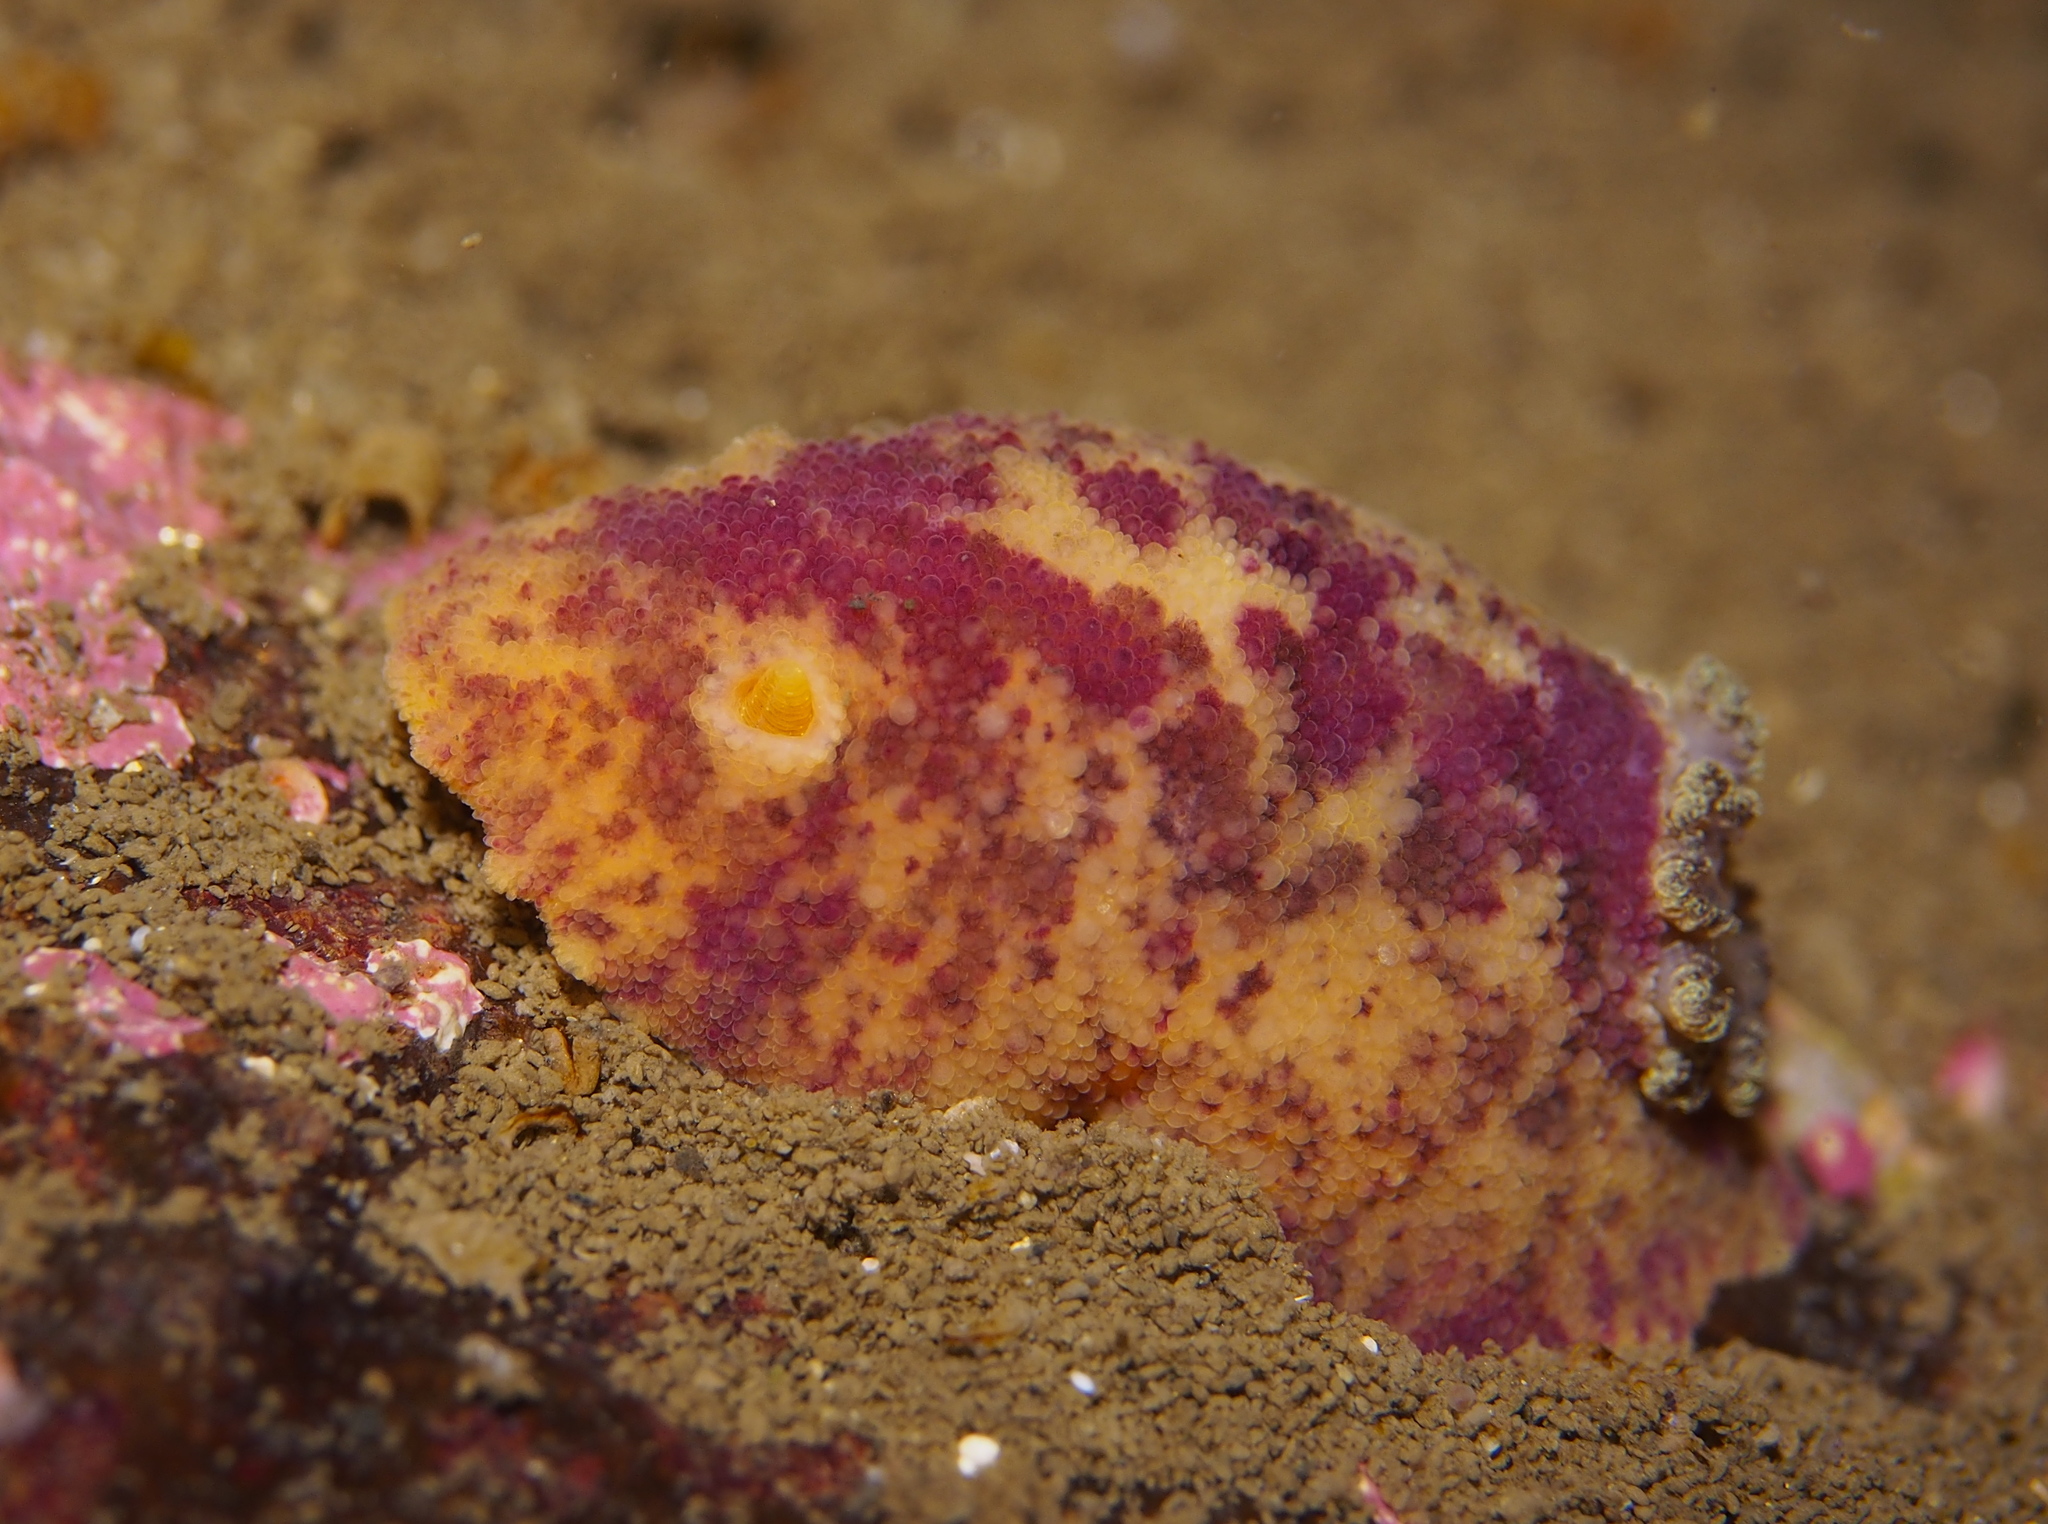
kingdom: Animalia
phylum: Mollusca
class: Gastropoda
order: Nudibranchia
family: Dorididae
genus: Doris
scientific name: Doris pseudoargus
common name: Sea lemon
